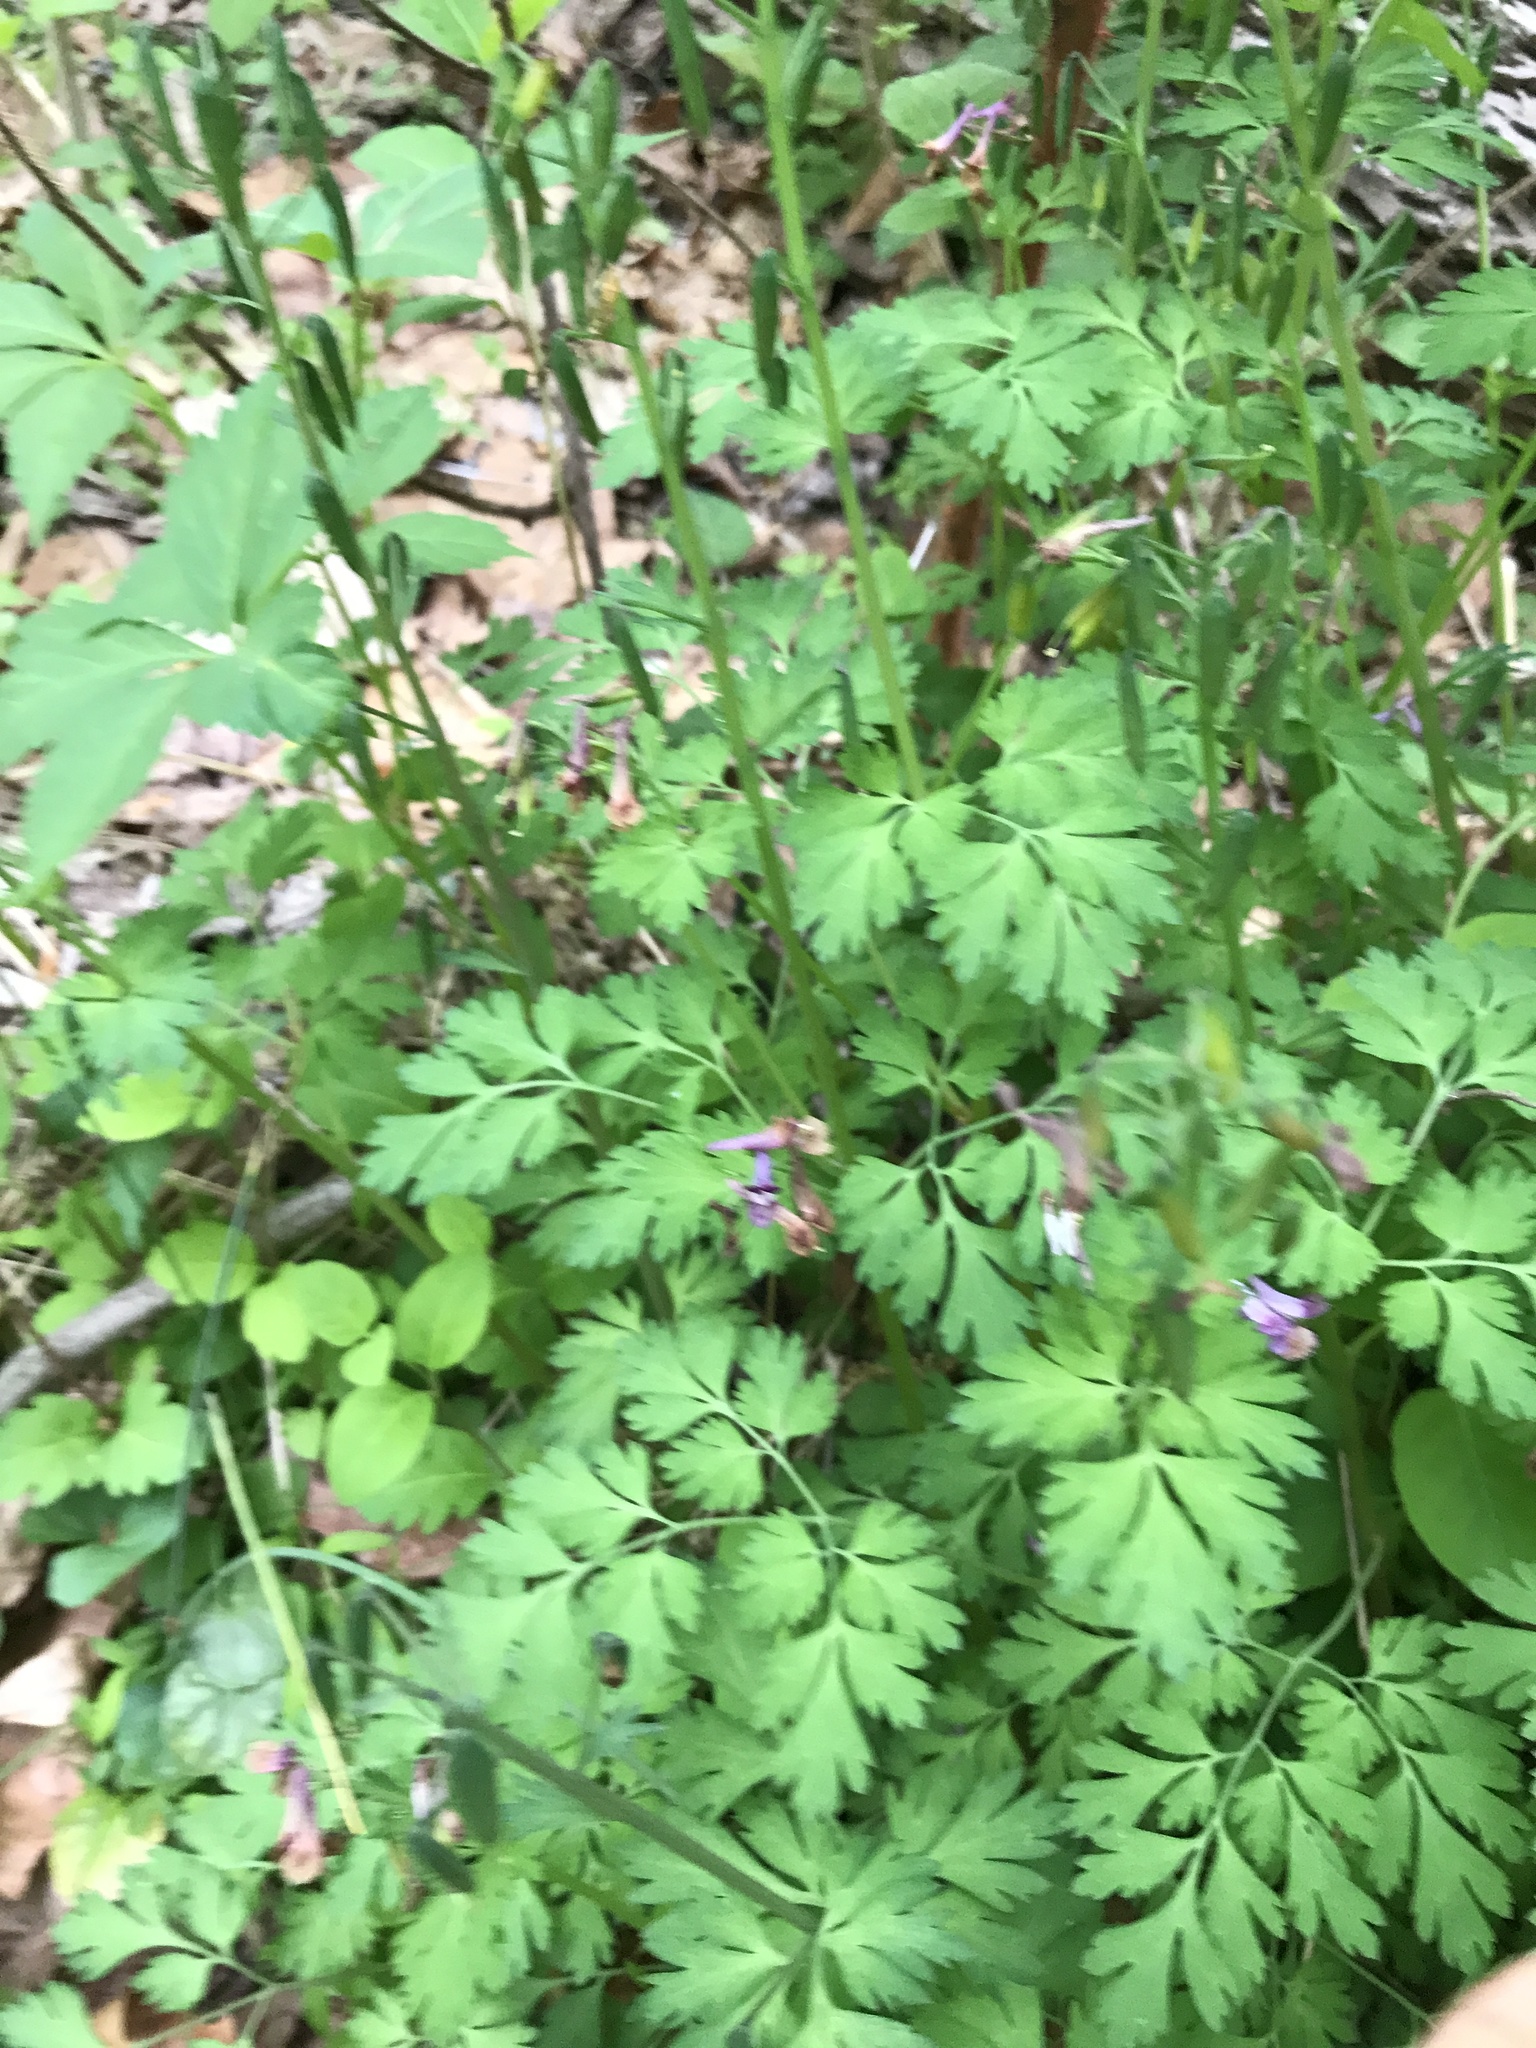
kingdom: Plantae
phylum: Tracheophyta
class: Magnoliopsida
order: Ranunculales
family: Papaveraceae
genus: Corydalis
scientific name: Corydalis incisa
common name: Incised fumewort
